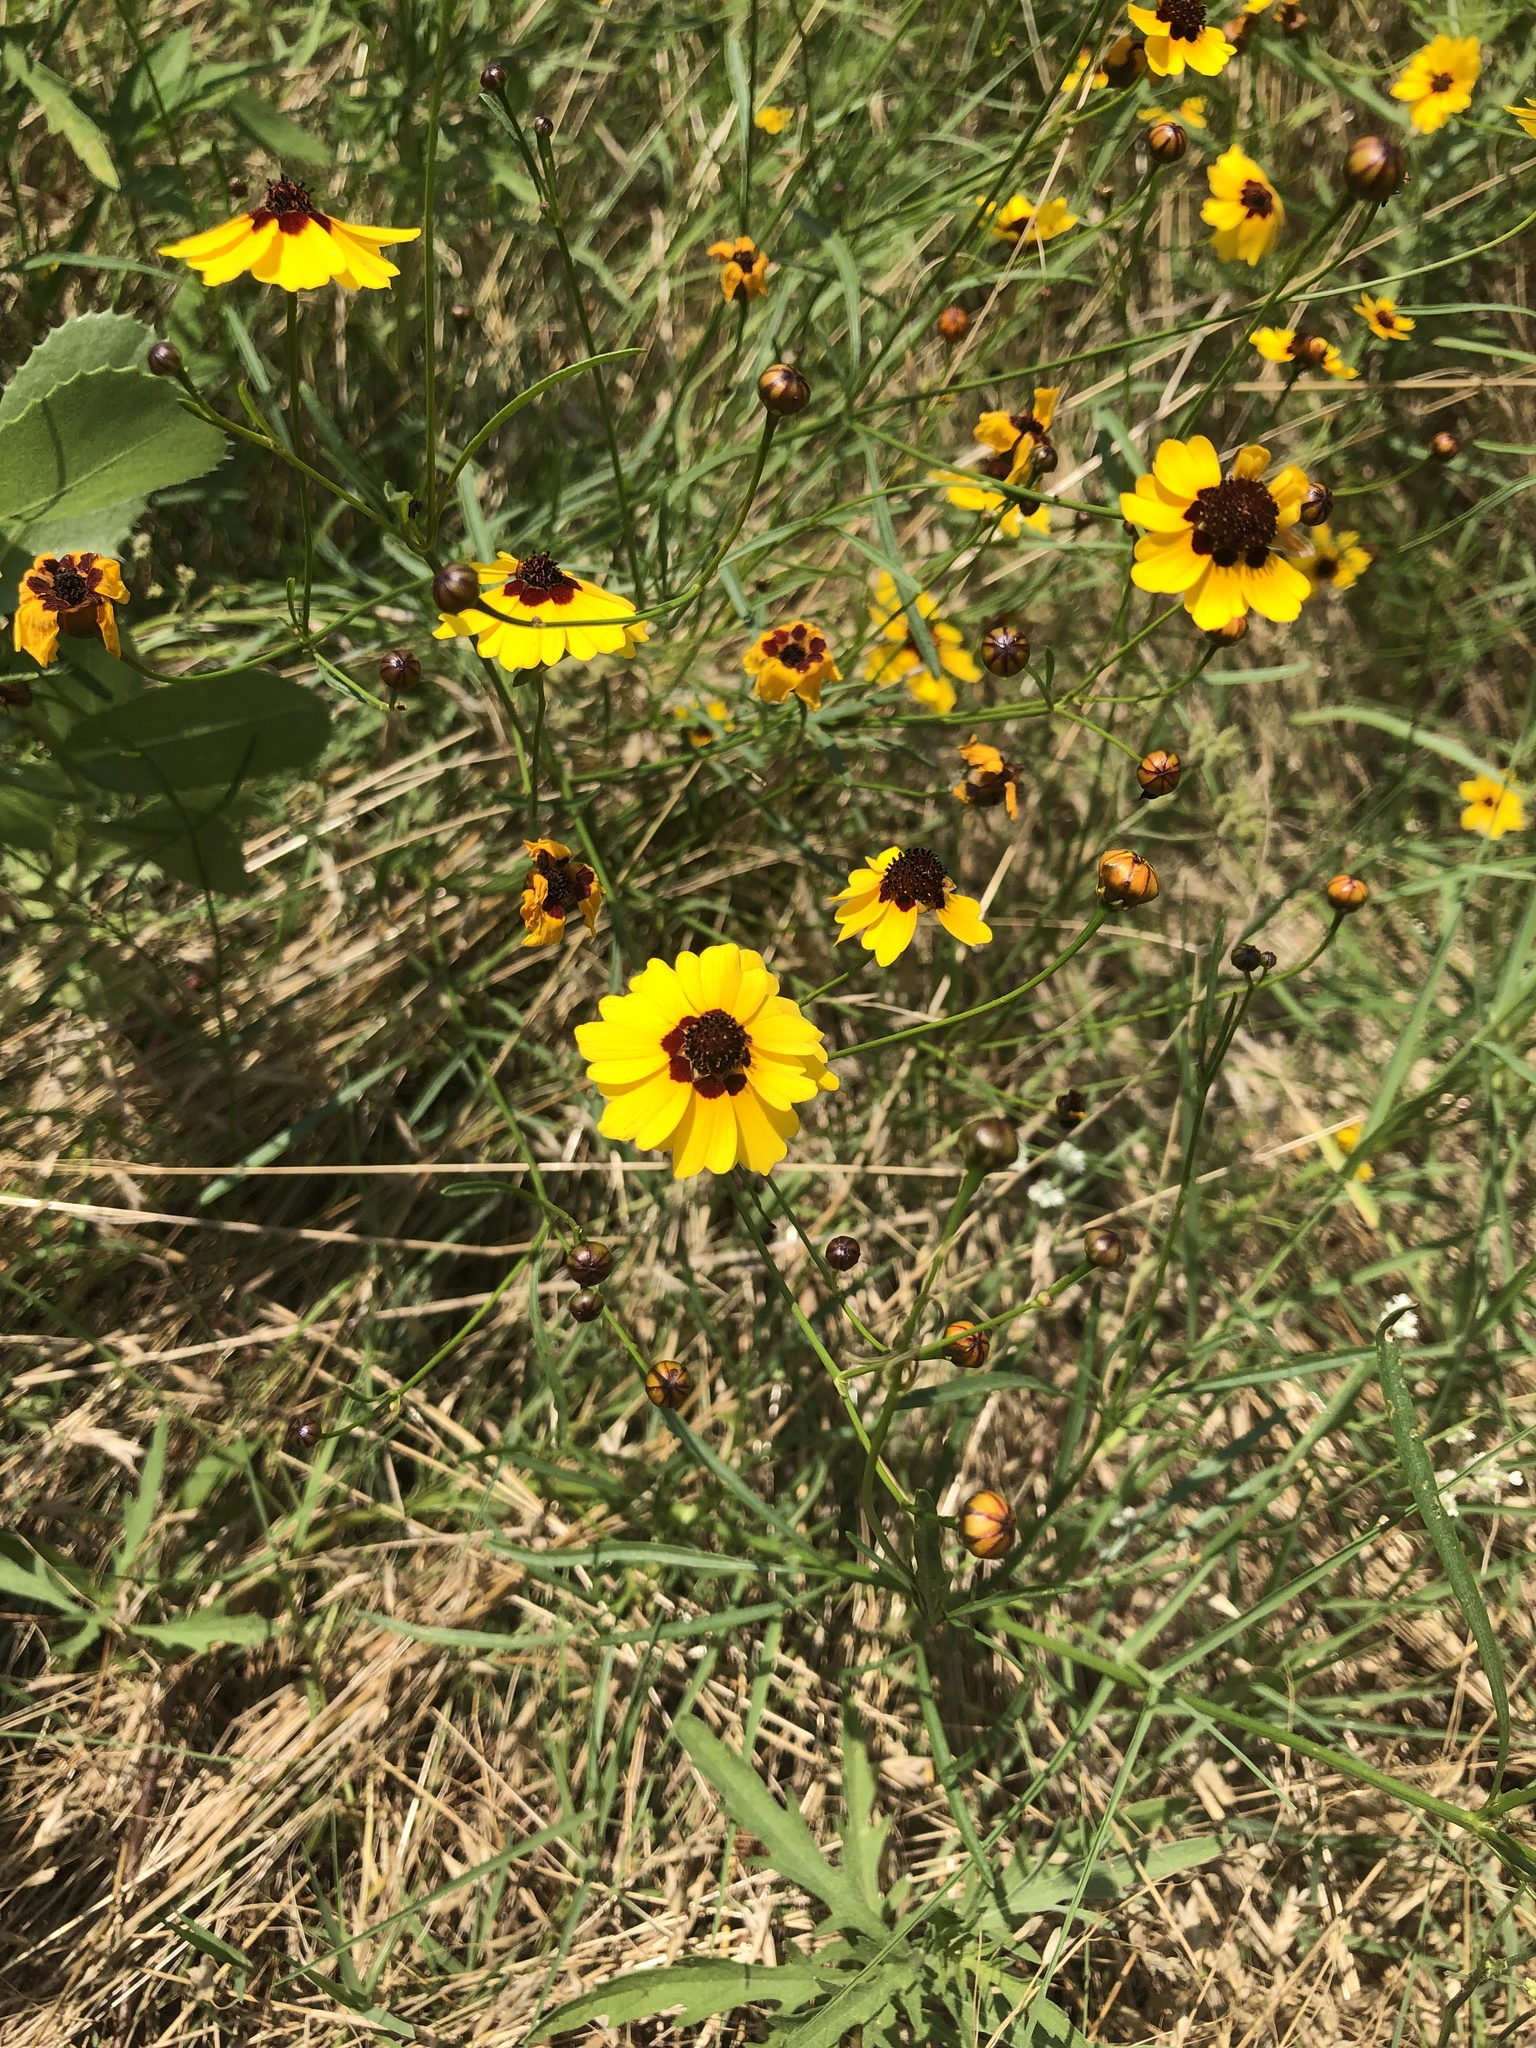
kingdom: Plantae
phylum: Tracheophyta
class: Magnoliopsida
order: Asterales
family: Asteraceae
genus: Coreopsis
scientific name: Coreopsis tinctoria
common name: Garden tickseed
